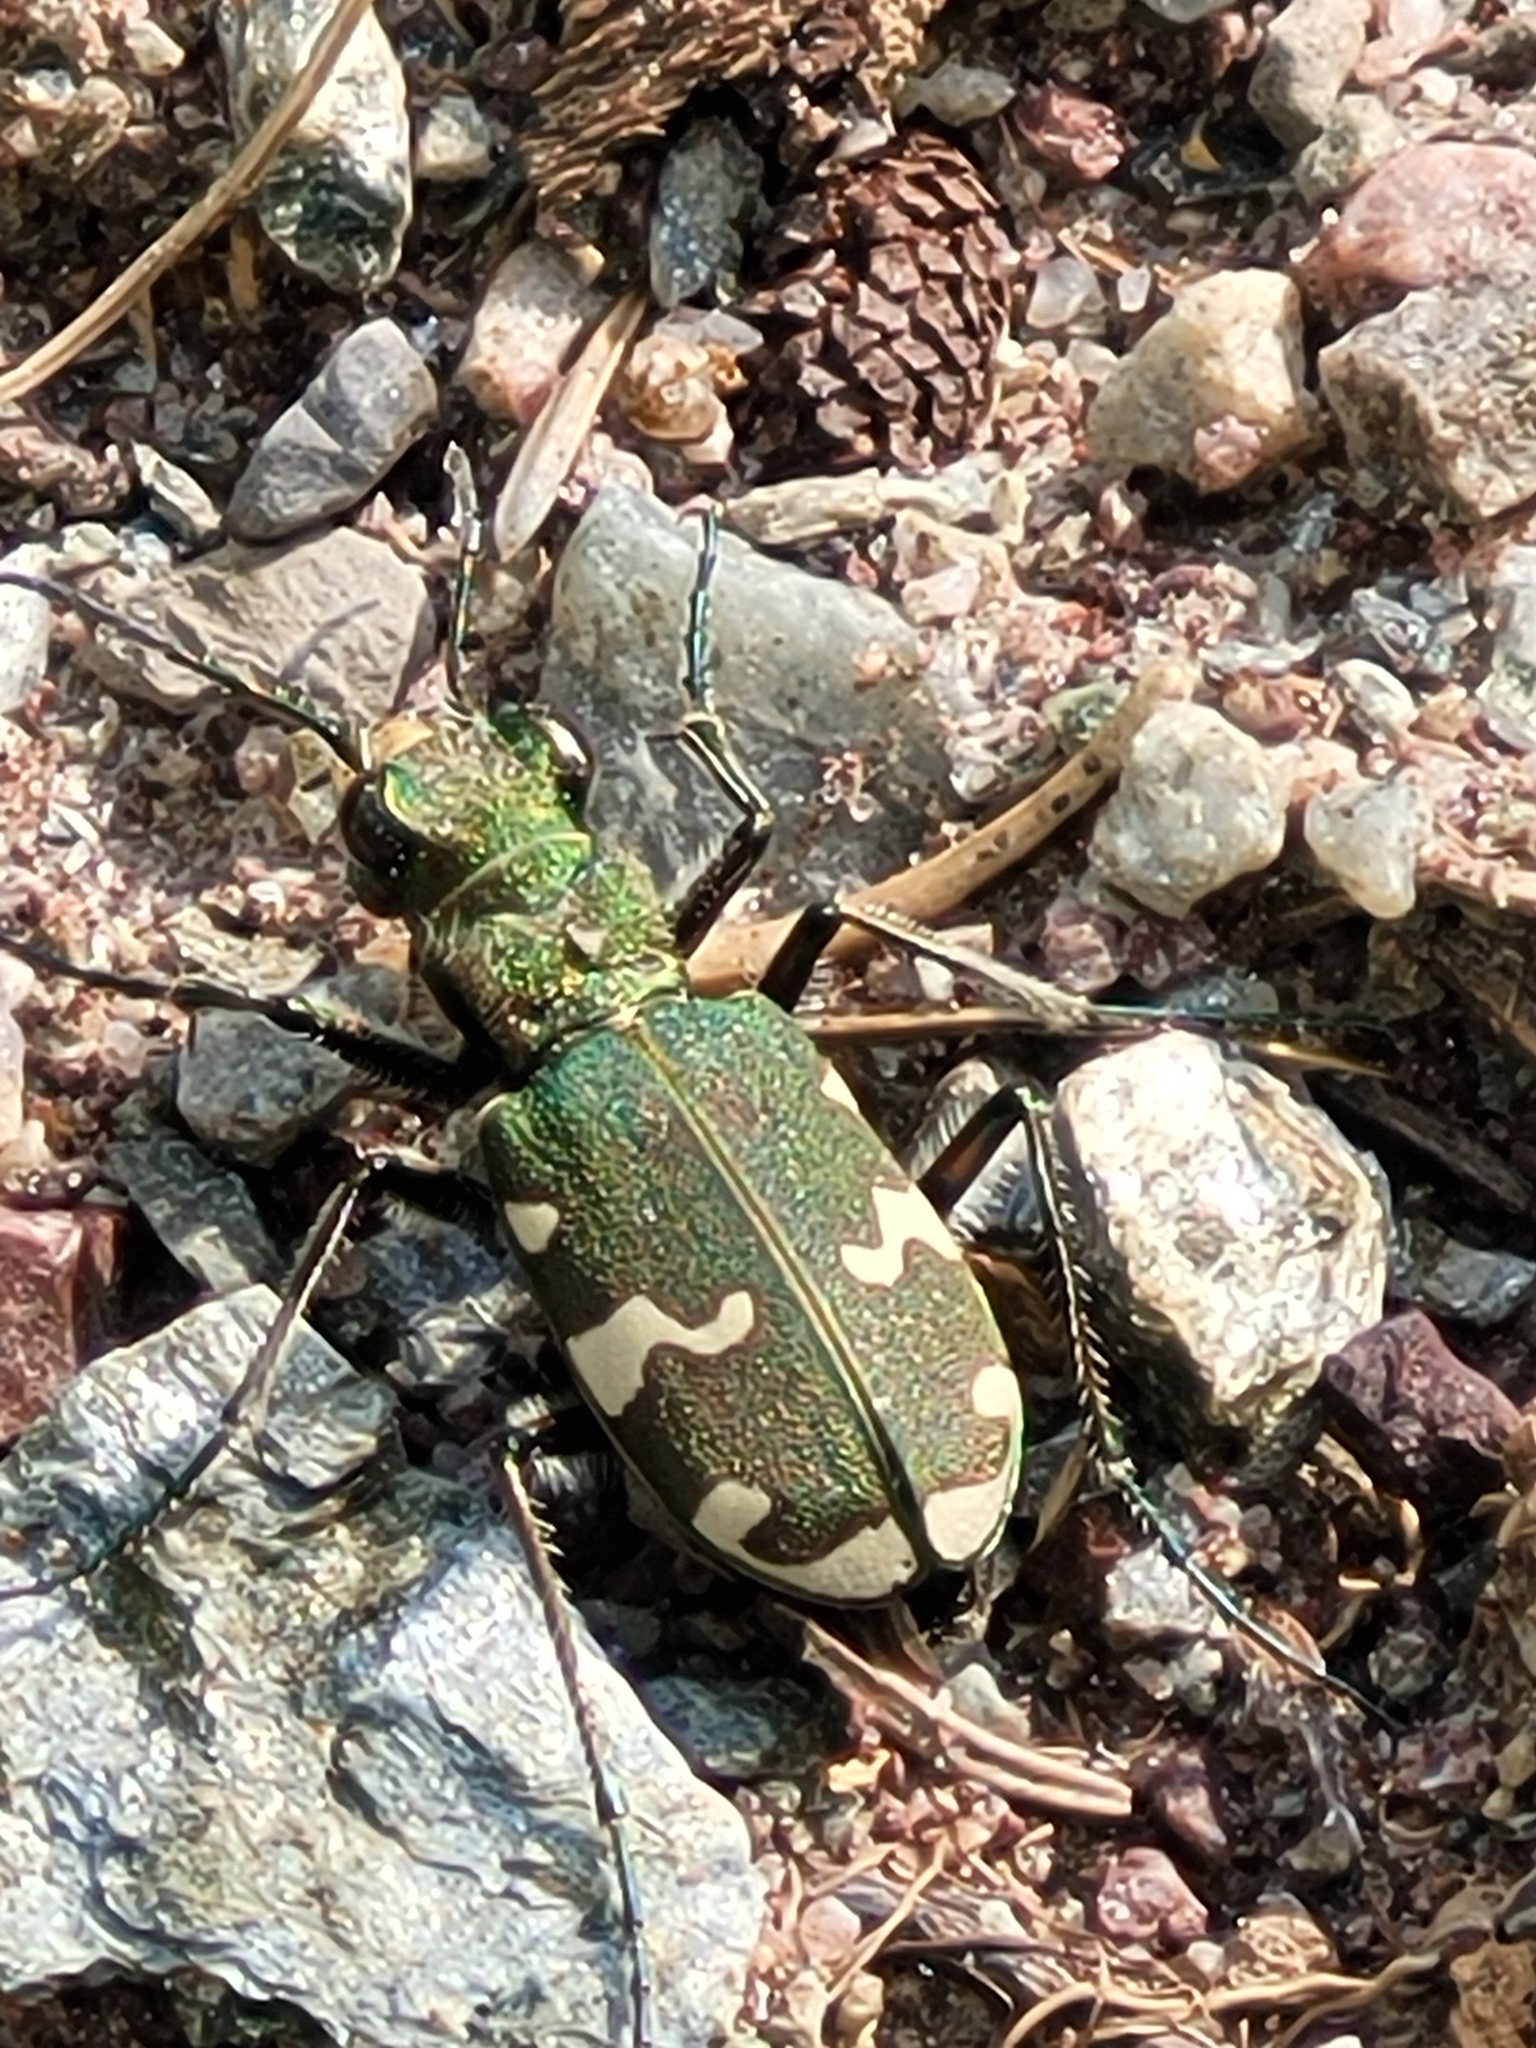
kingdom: Animalia
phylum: Arthropoda
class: Insecta
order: Coleoptera
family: Carabidae
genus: Cicindela
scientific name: Cicindela sylvicola
